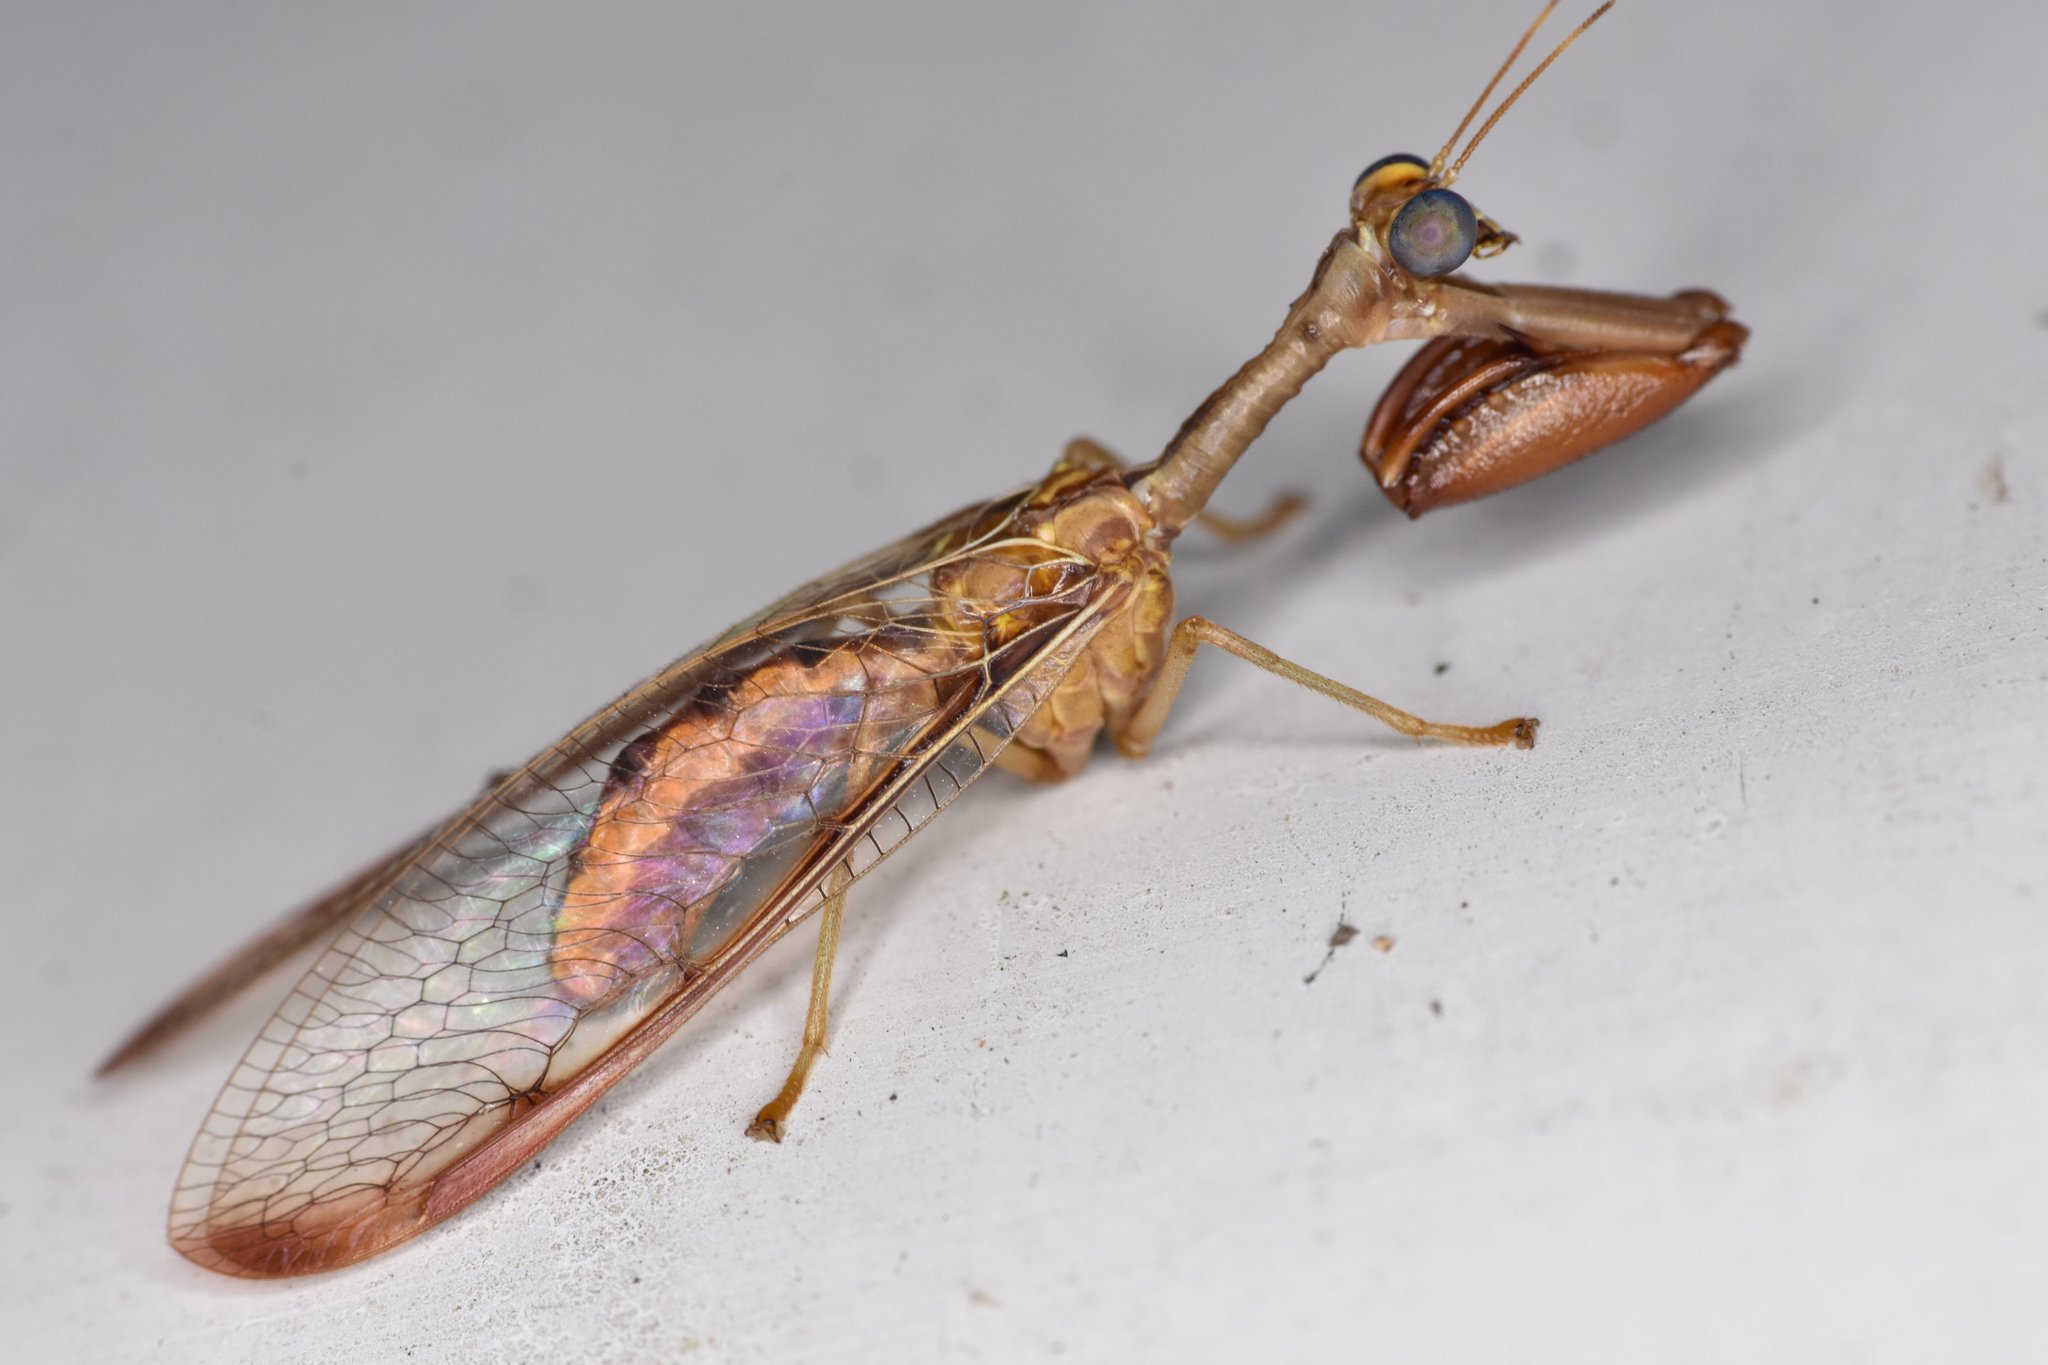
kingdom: Animalia
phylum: Arthropoda
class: Insecta
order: Neuroptera
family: Mantispidae
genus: Dicromantispa
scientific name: Dicromantispa interrupta
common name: Four-spotted mantidfly
